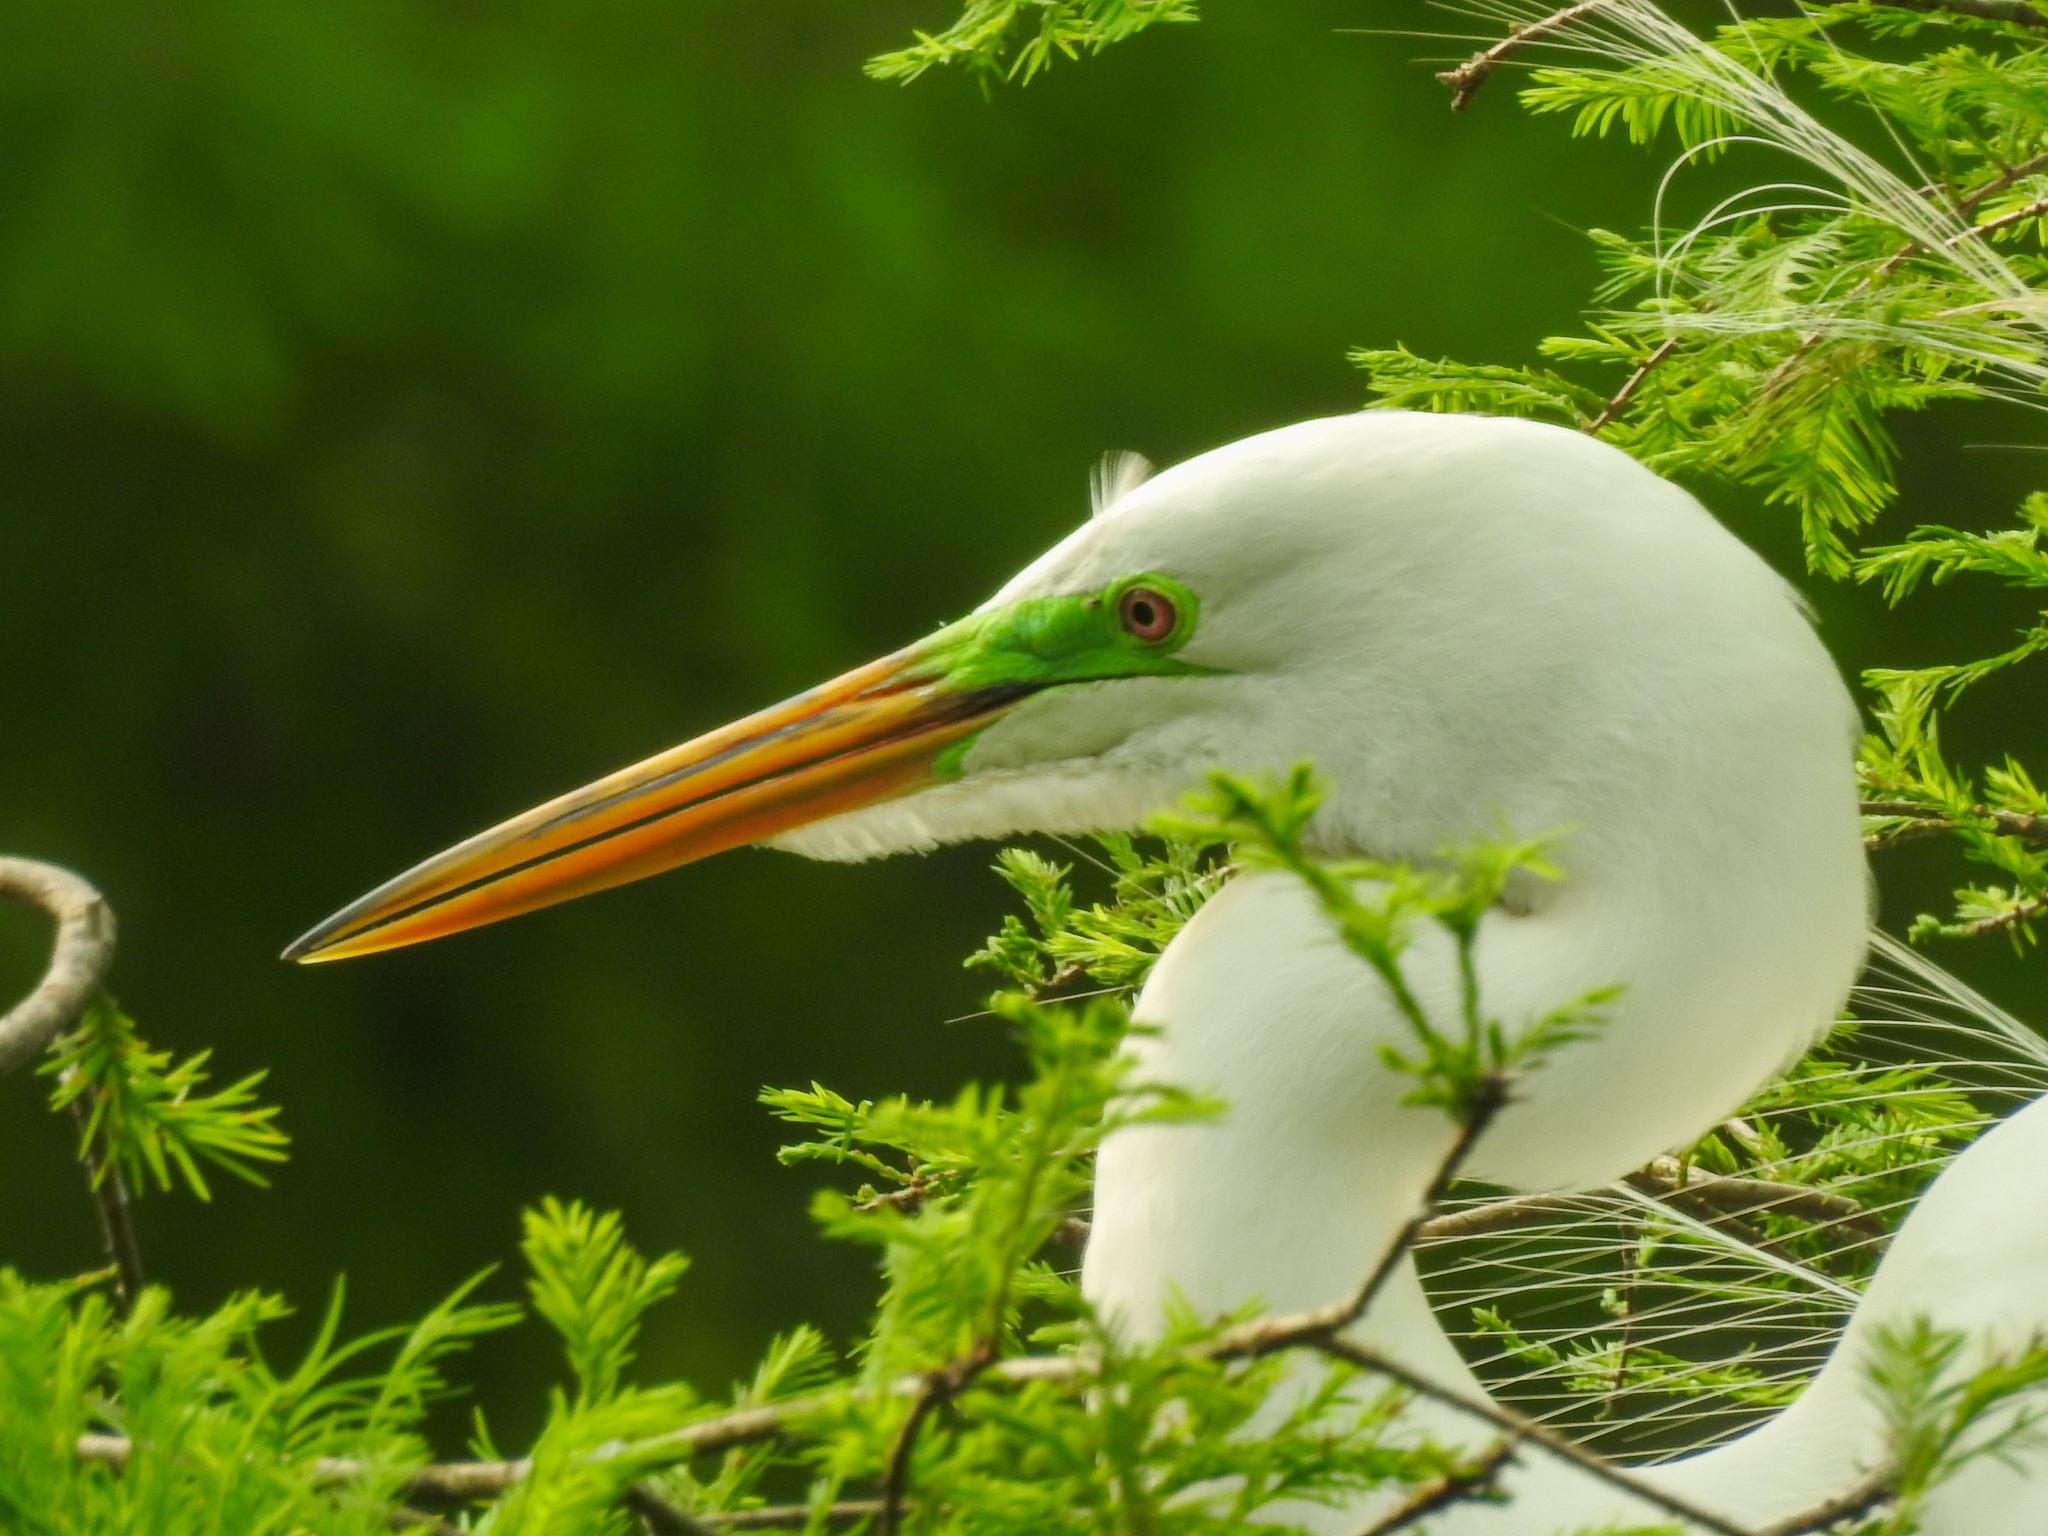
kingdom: Animalia
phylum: Chordata
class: Aves
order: Pelecaniformes
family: Ardeidae
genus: Ardea
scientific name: Ardea alba
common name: Great egret
